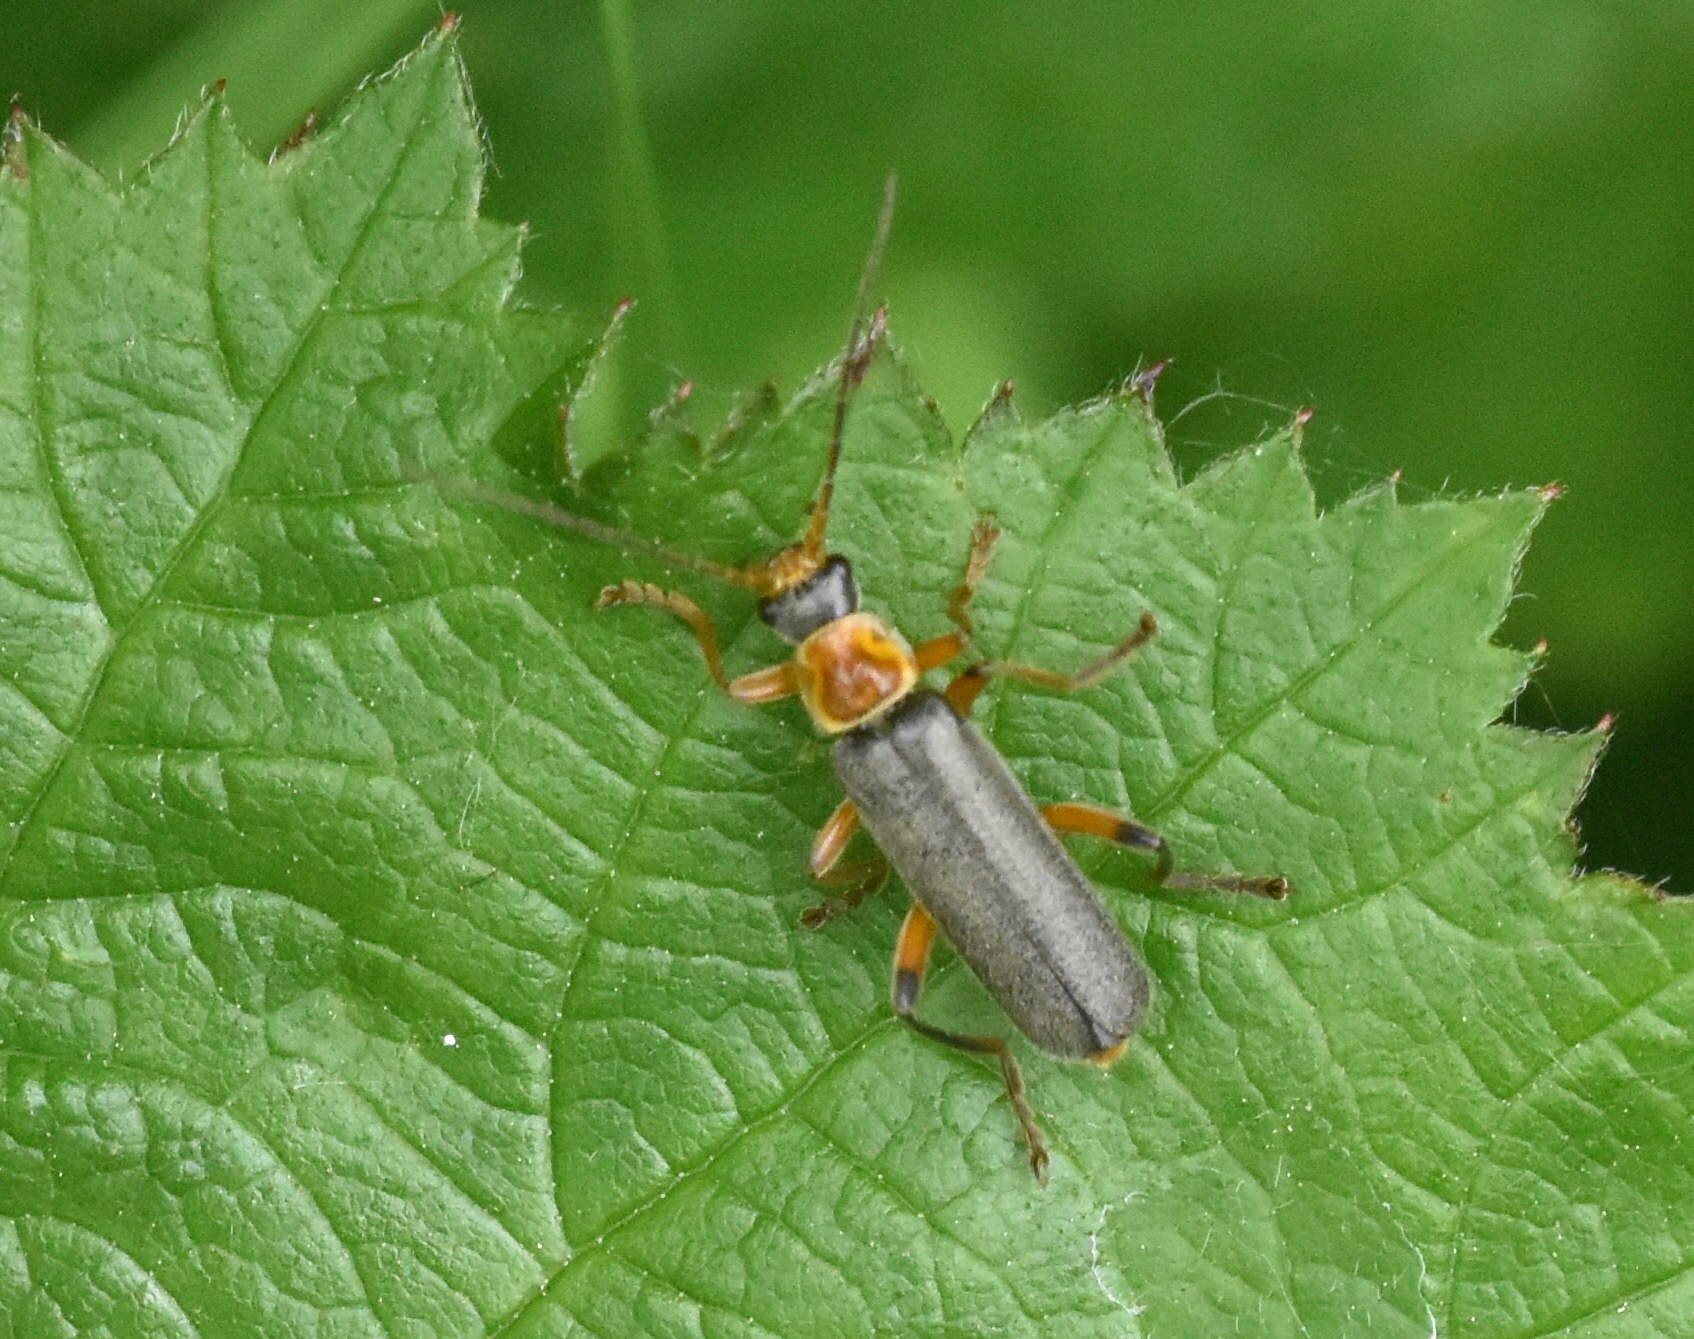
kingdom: Animalia
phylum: Arthropoda
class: Insecta
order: Coleoptera
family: Cantharidae
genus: Cantharis
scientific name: Cantharis nigricans
